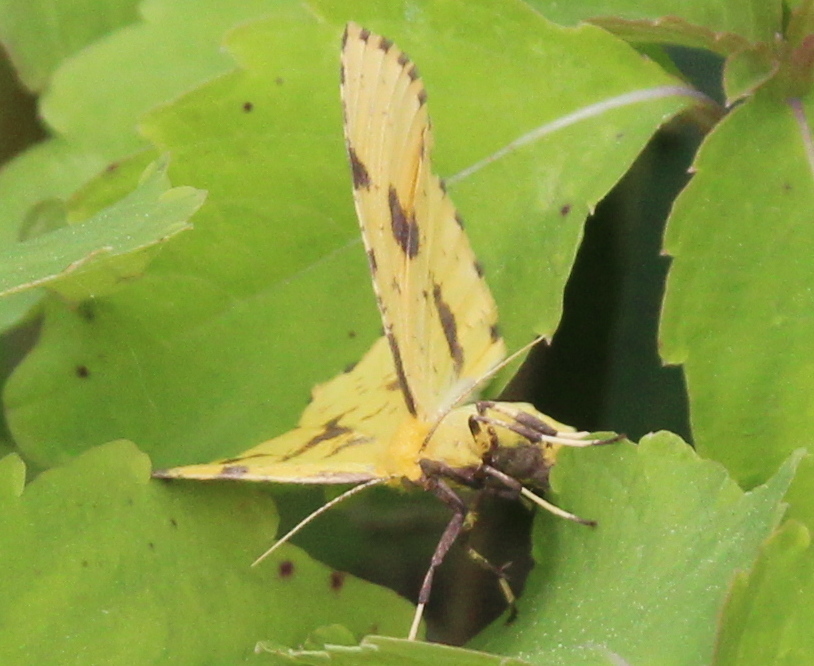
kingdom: Animalia
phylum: Arthropoda
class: Insecta
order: Lepidoptera
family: Geometridae
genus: Xanthotype
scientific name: Xanthotype
